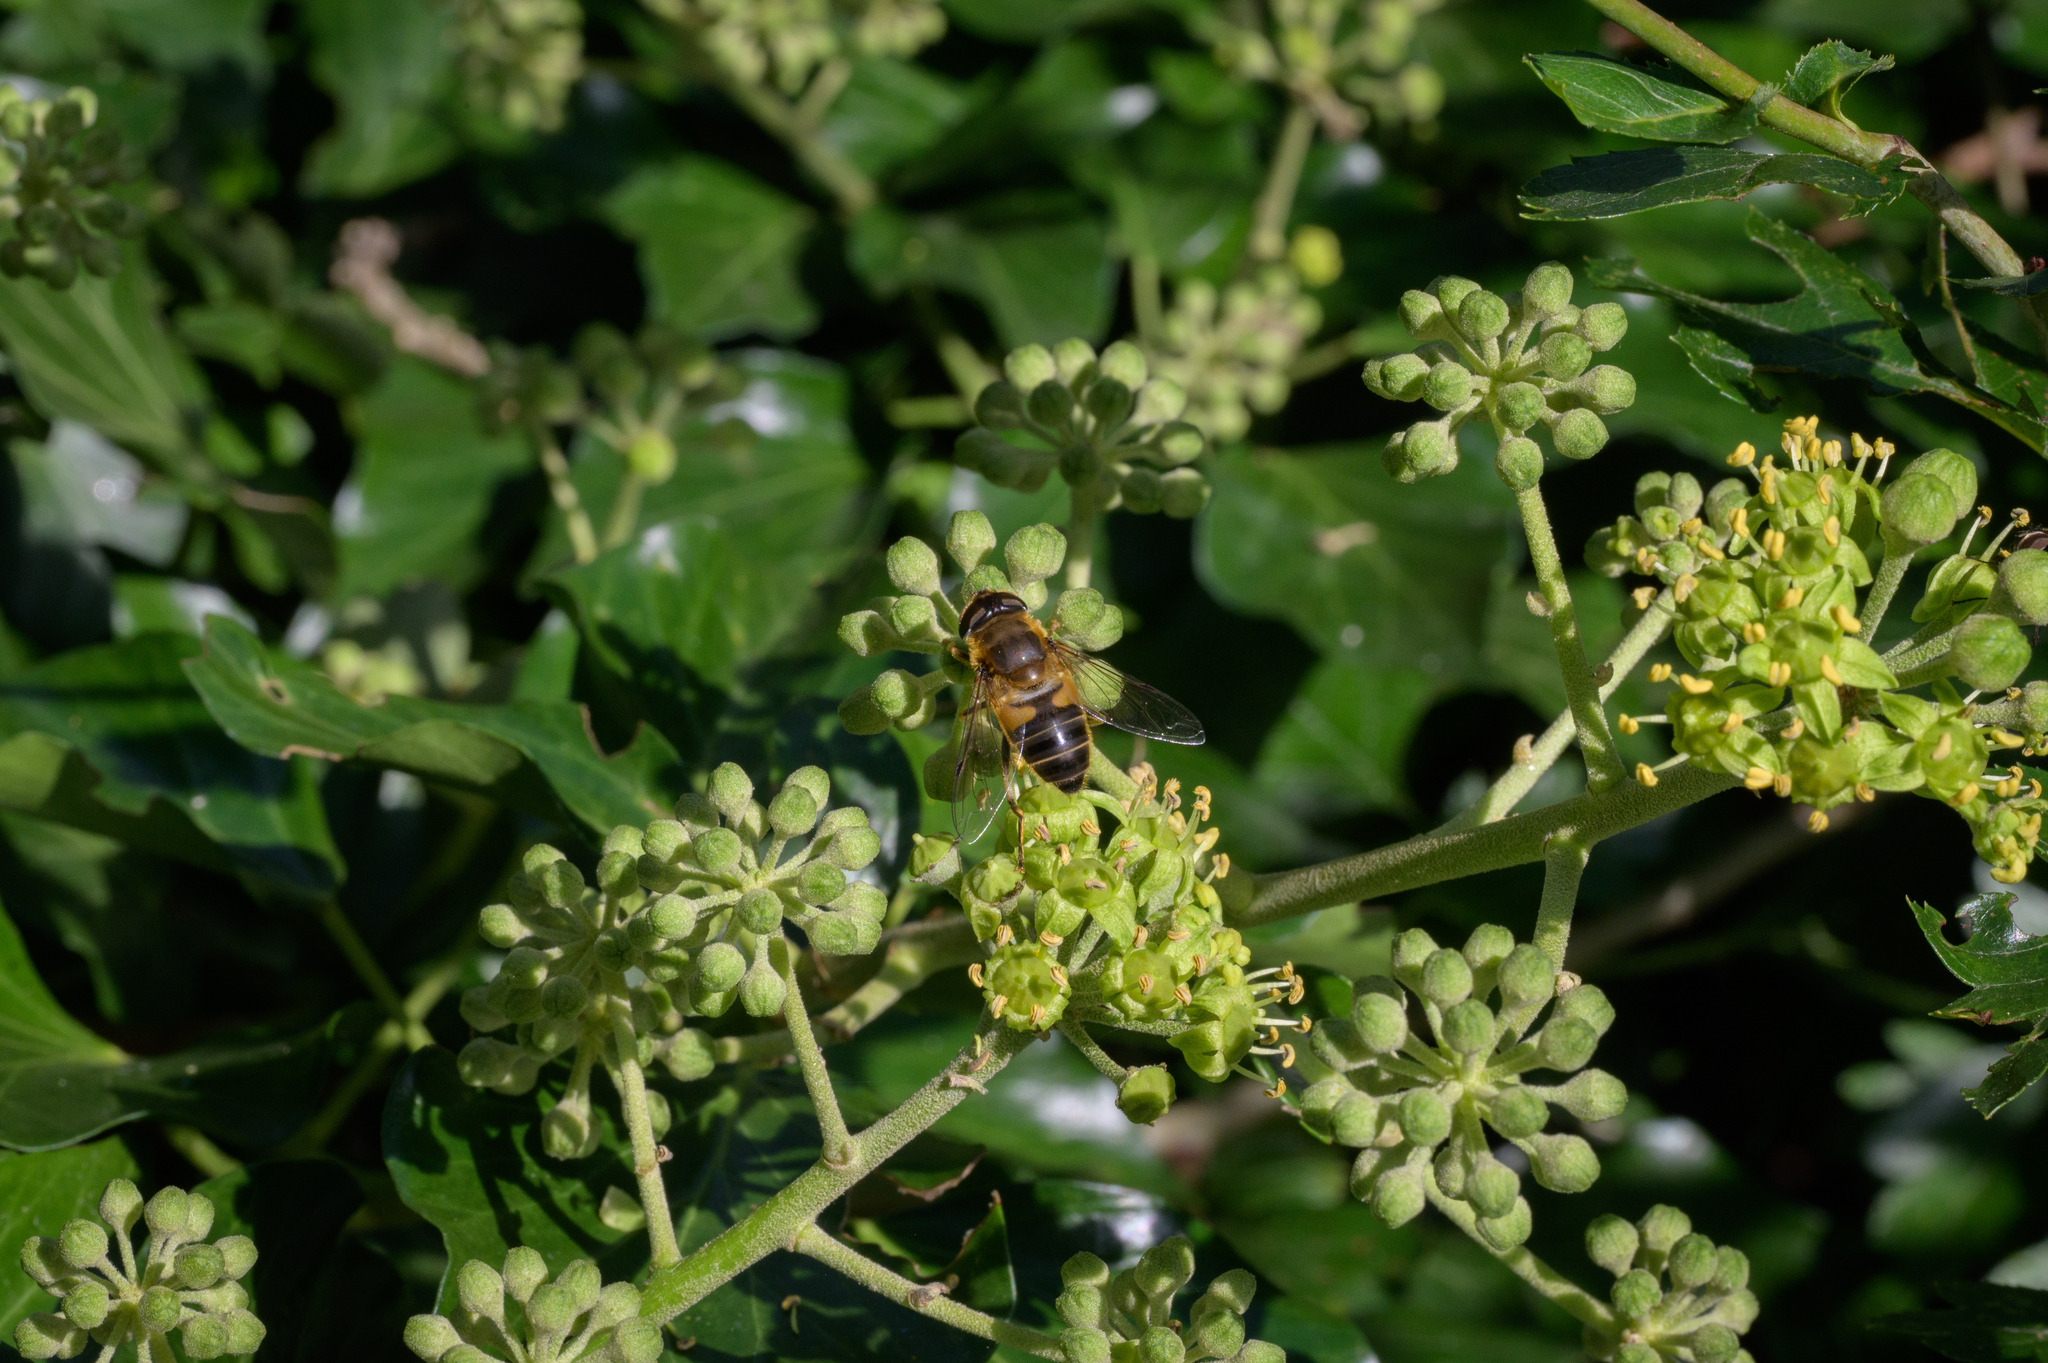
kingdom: Animalia
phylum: Arthropoda
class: Insecta
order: Diptera
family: Syrphidae
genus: Eristalis
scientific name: Eristalis pertinax
